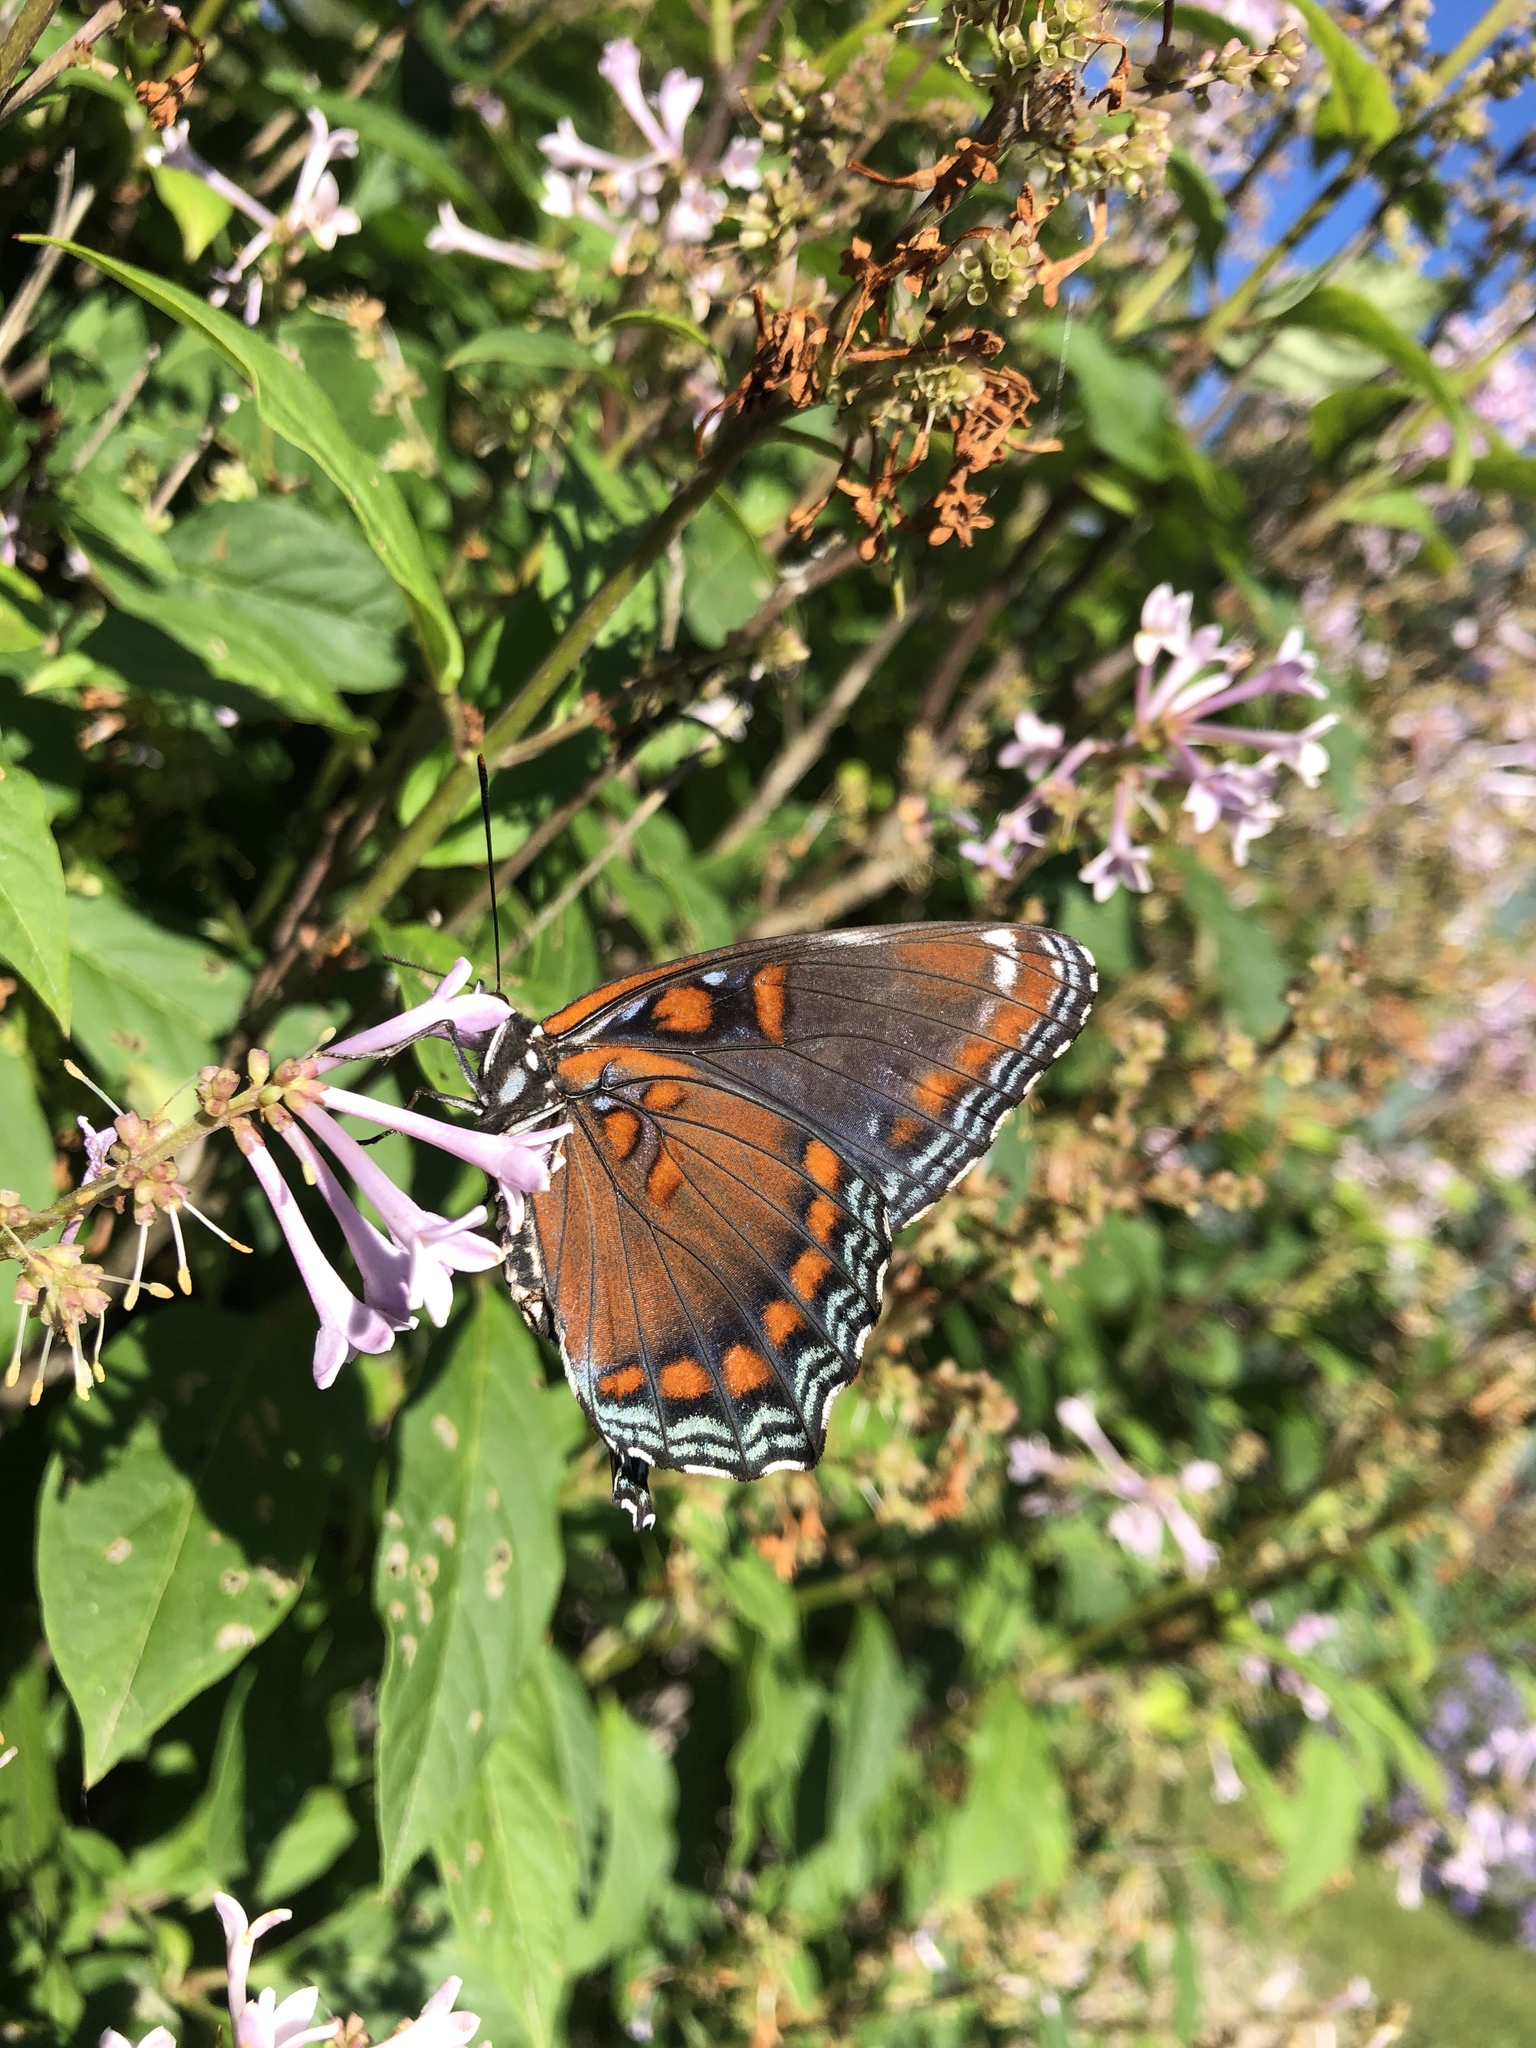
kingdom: Animalia
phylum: Arthropoda
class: Insecta
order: Lepidoptera
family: Nymphalidae
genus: Limenitis
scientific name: Limenitis astyanax
